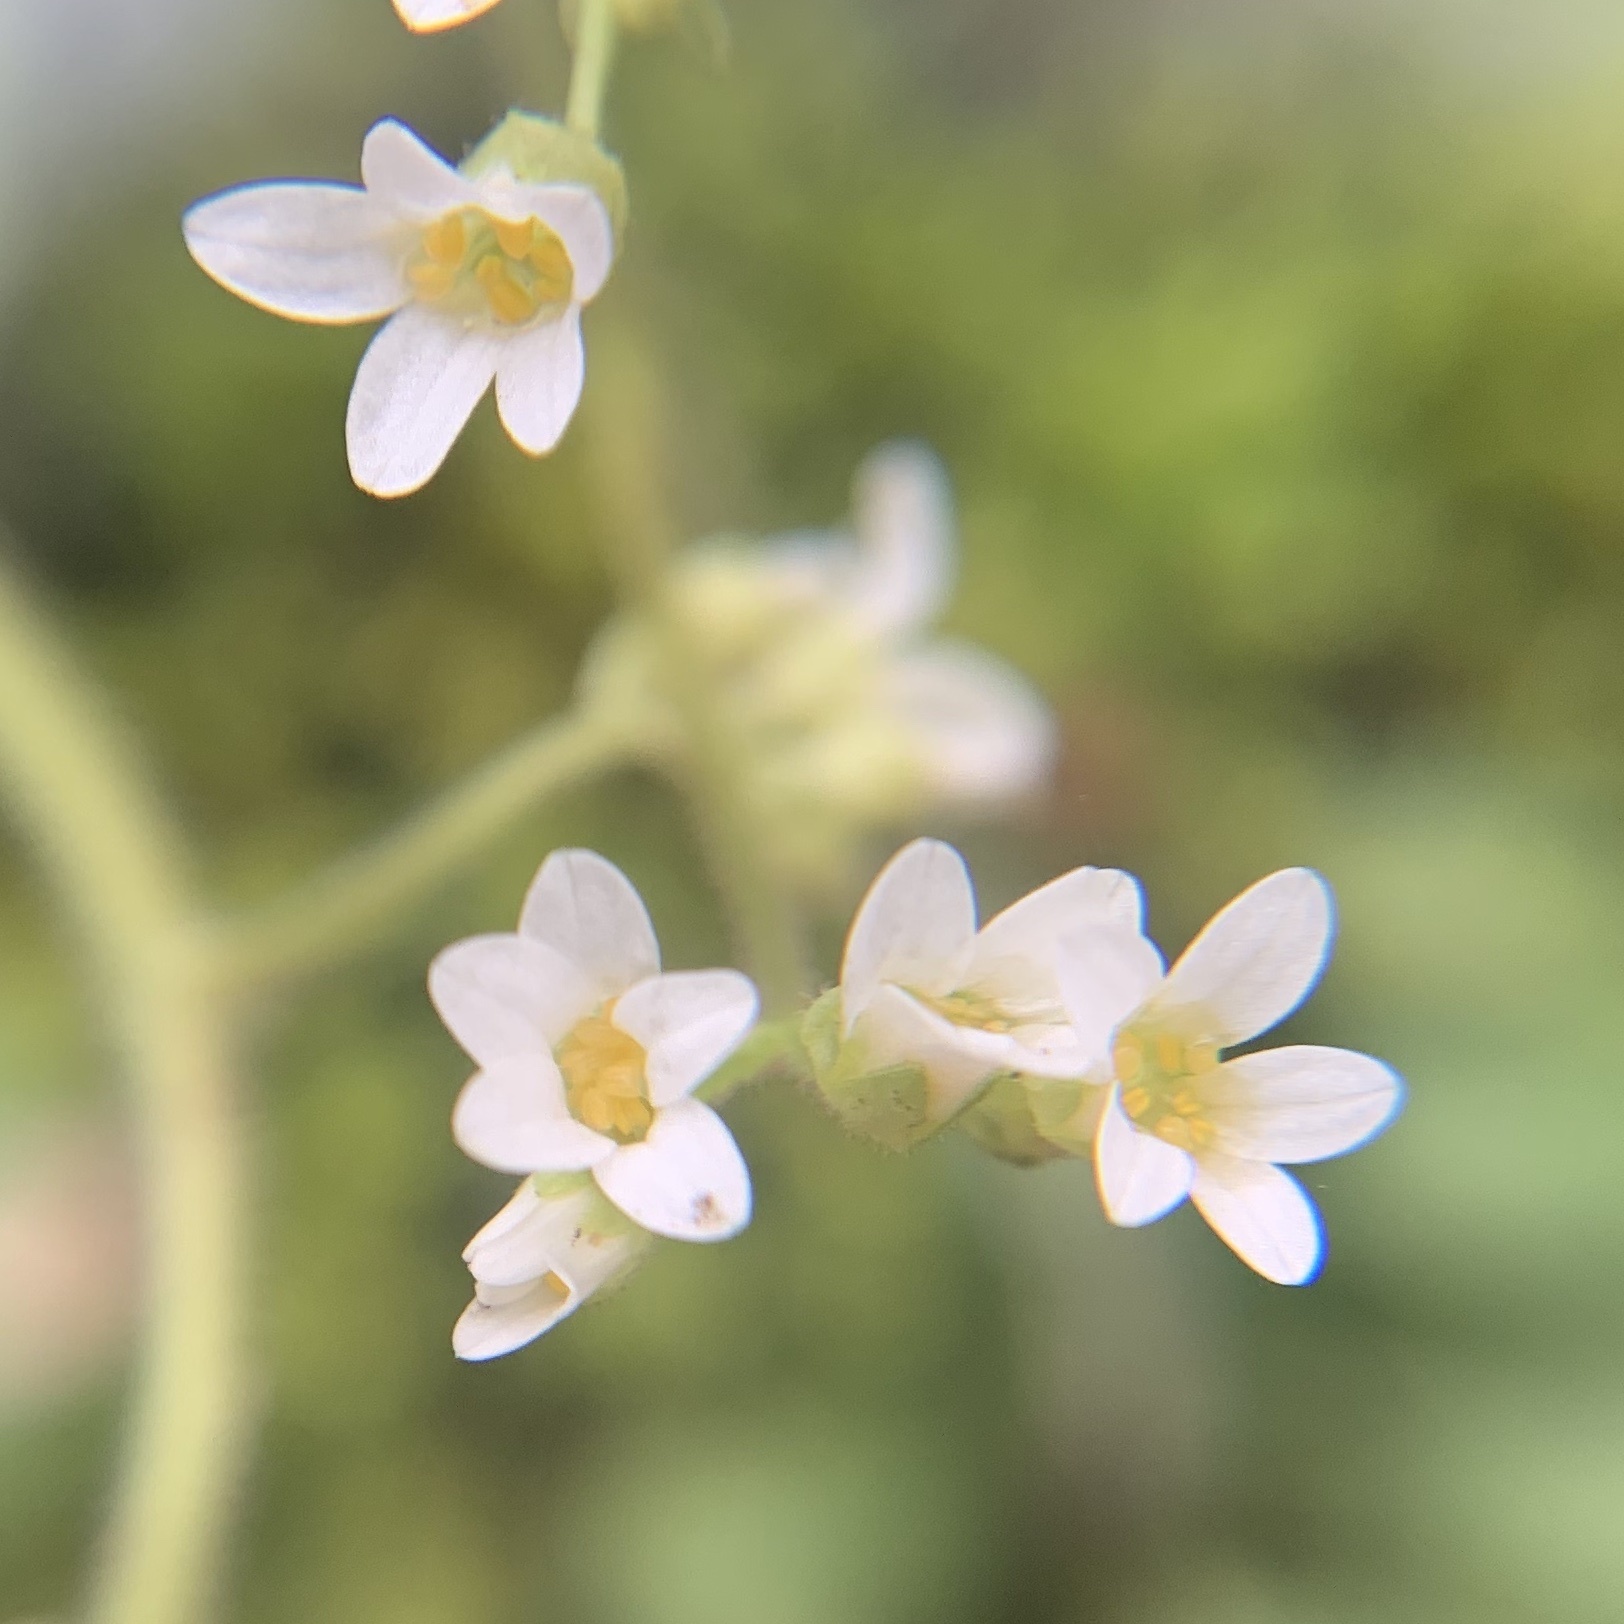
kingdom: Plantae
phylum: Tracheophyta
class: Magnoliopsida
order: Saxifragales
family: Saxifragaceae
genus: Micranthes
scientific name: Micranthes virginiensis
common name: Early saxifrage
